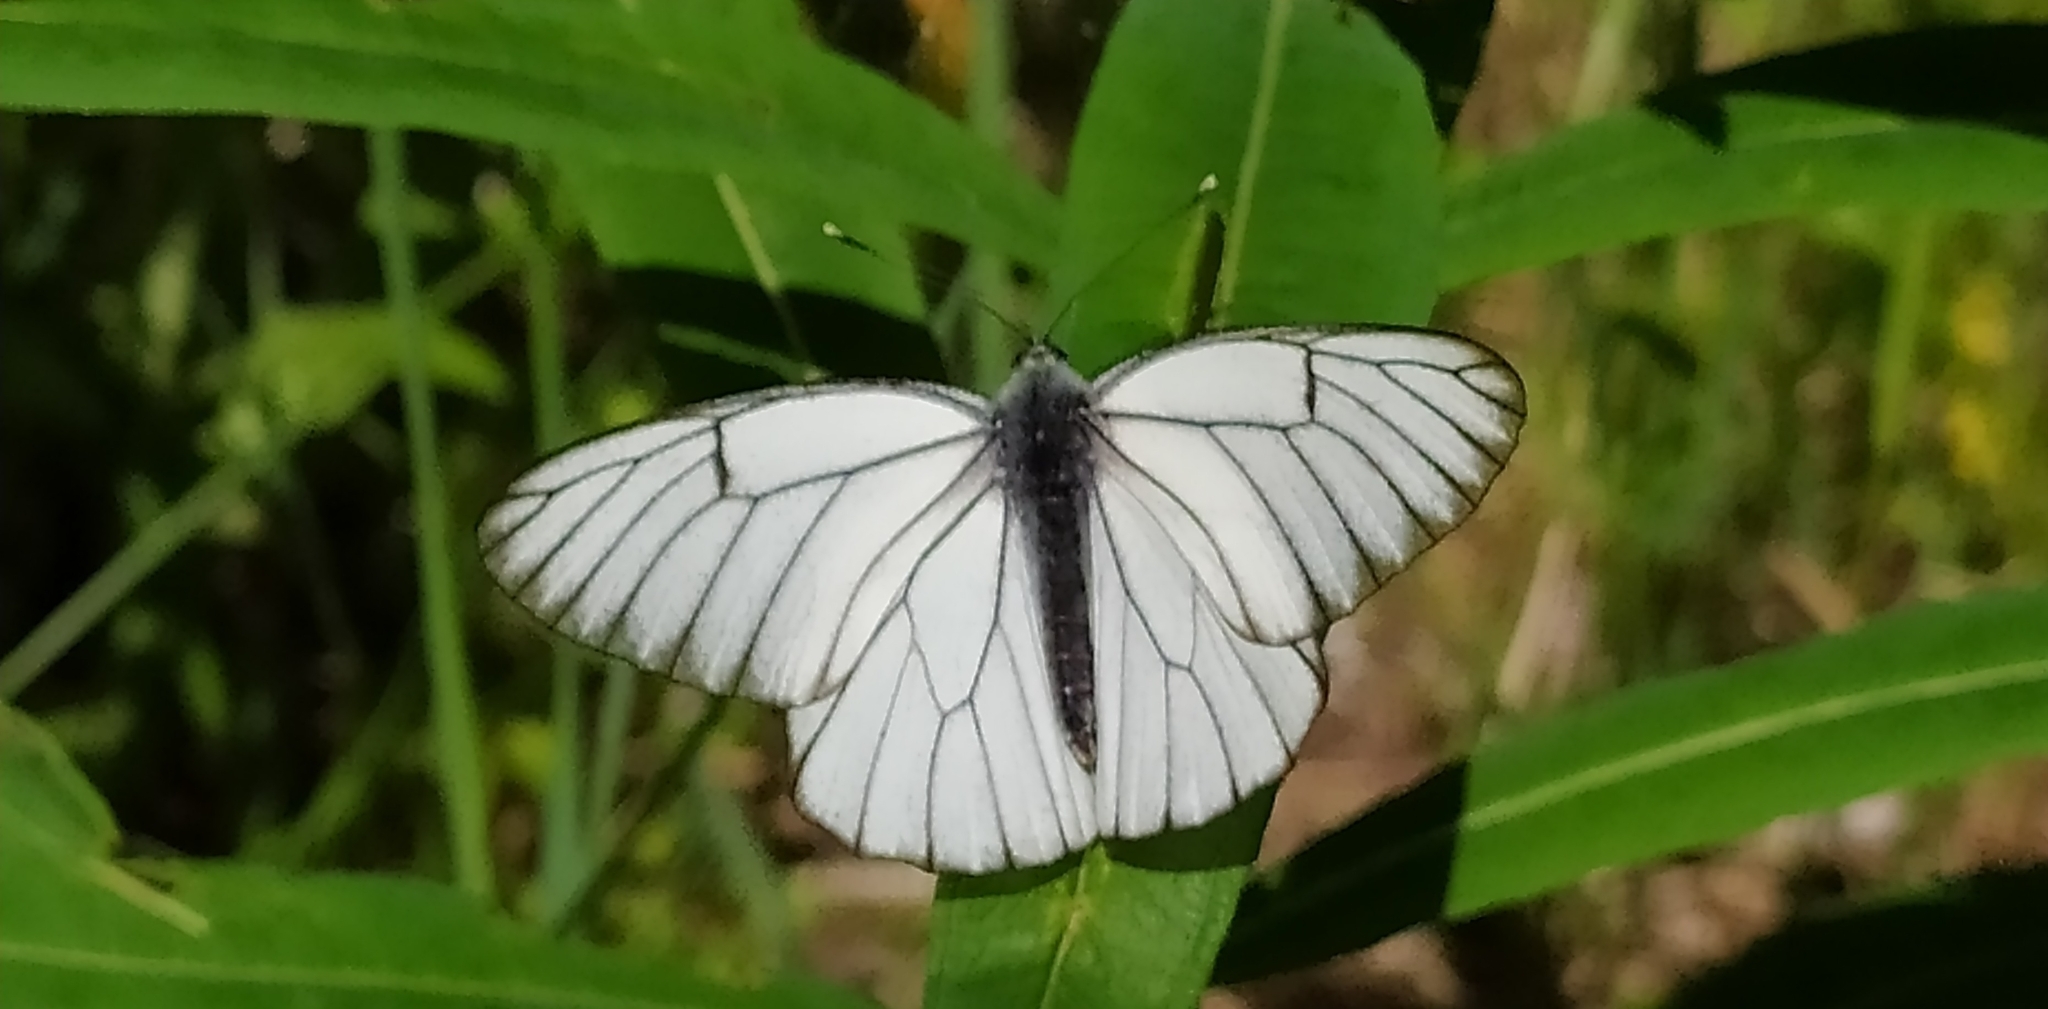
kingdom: Animalia
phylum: Arthropoda
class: Insecta
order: Lepidoptera
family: Pieridae
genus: Aporia
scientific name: Aporia crataegi
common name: Black-veined white
